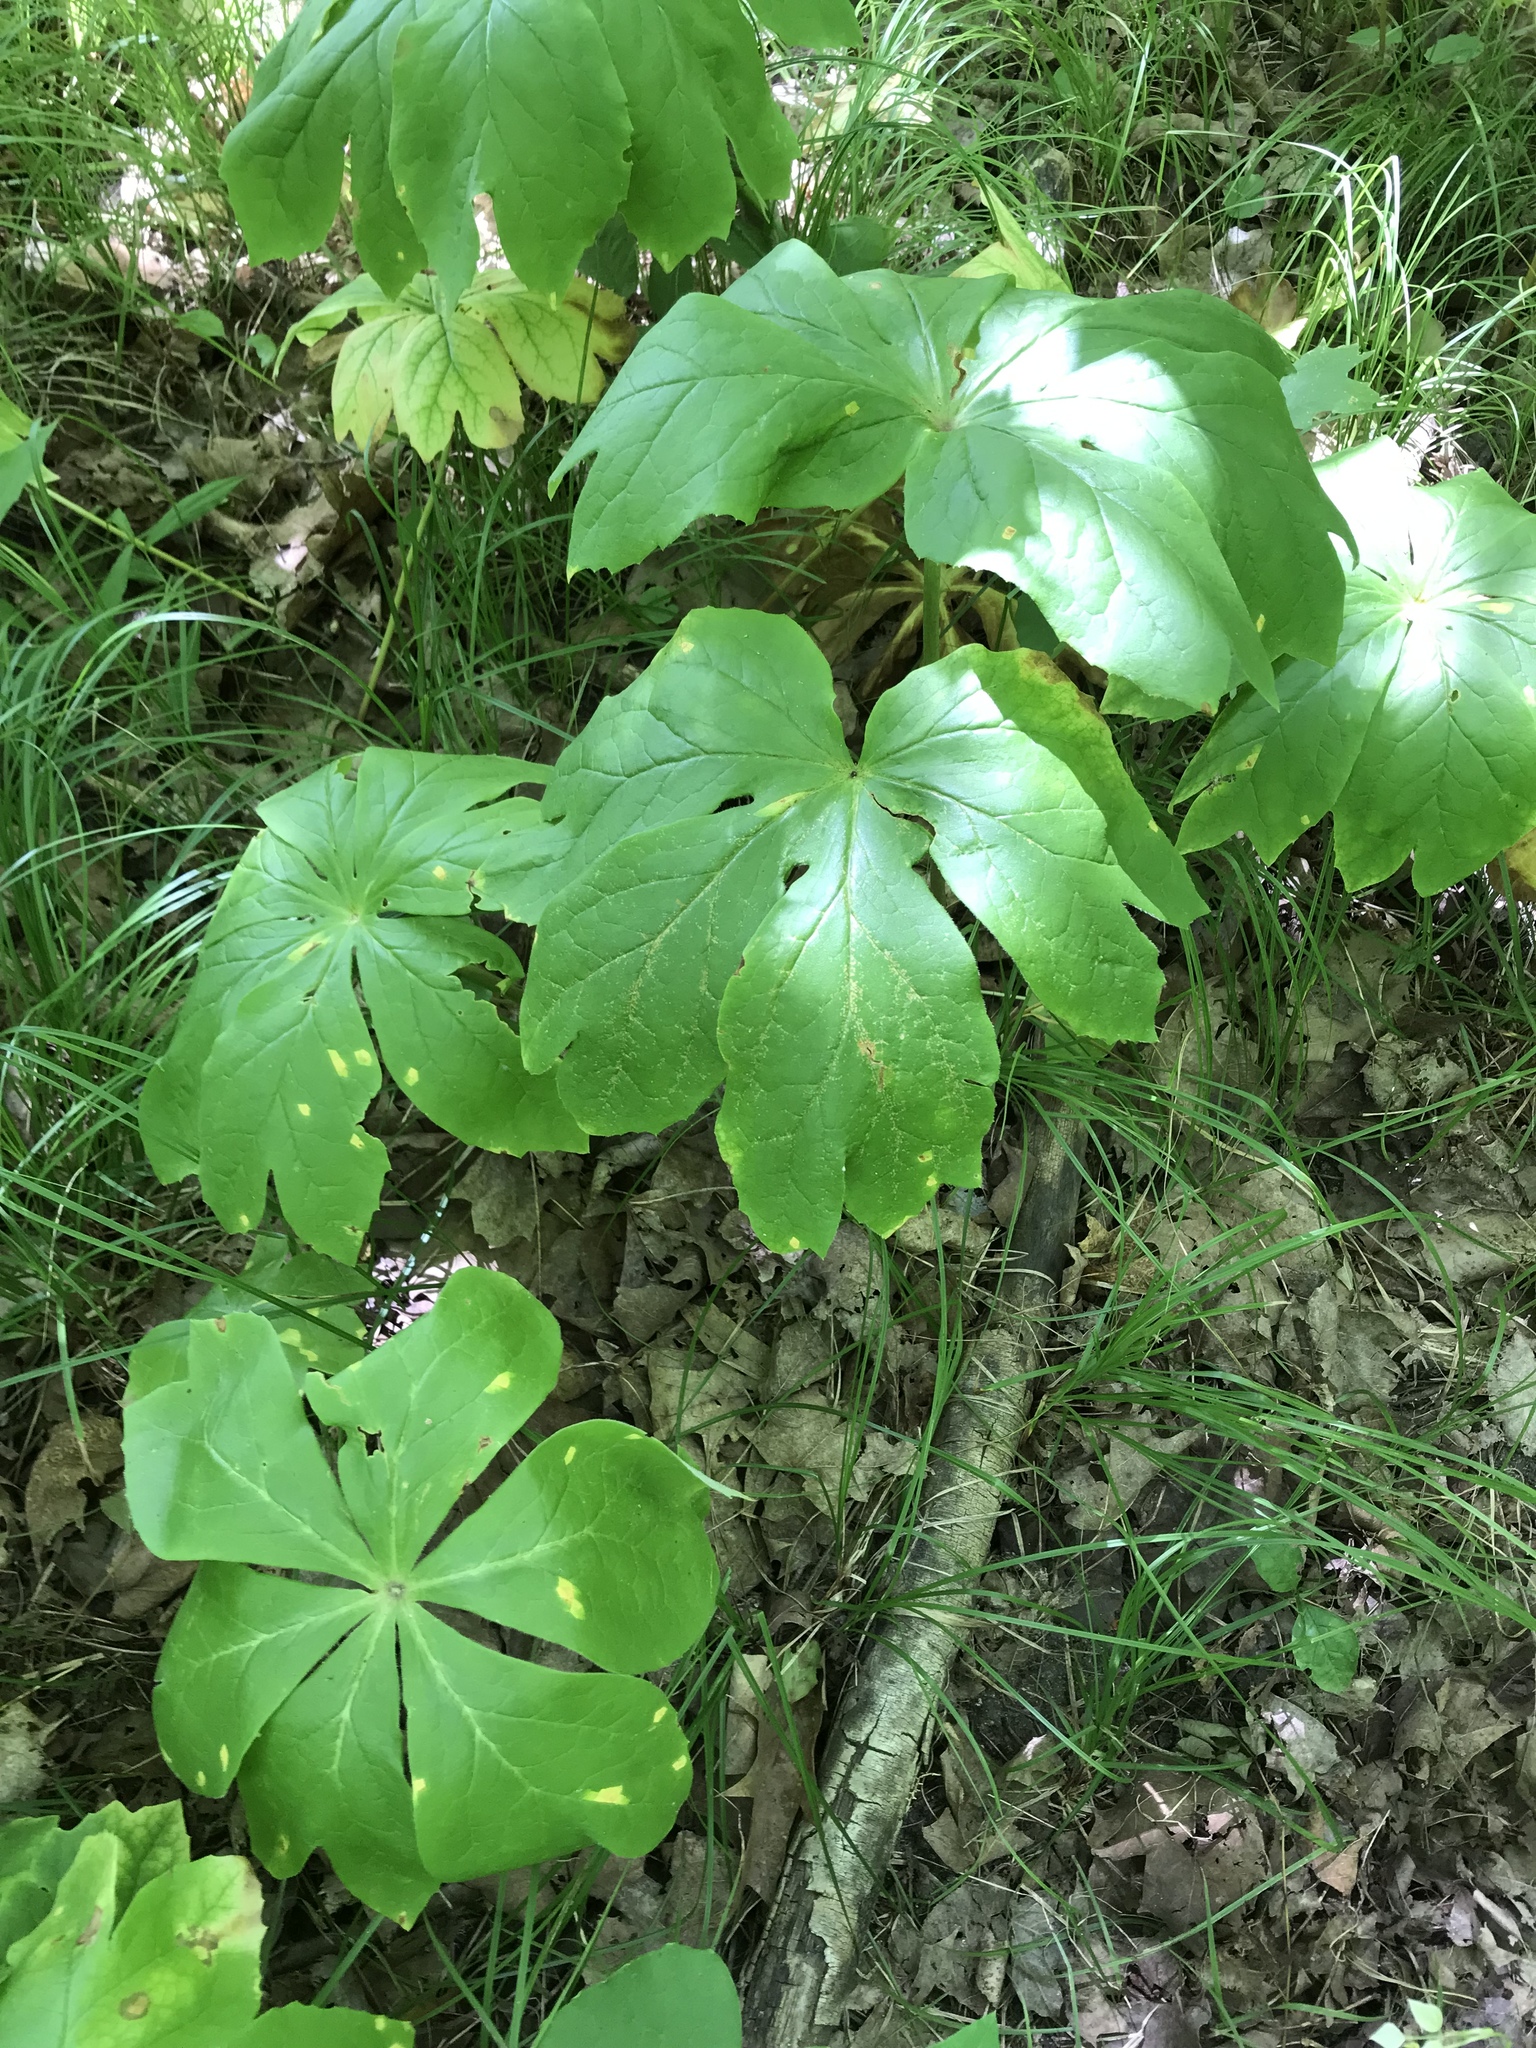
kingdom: Plantae
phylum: Tracheophyta
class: Magnoliopsida
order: Ranunculales
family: Berberidaceae
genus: Podophyllum
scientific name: Podophyllum peltatum
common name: Wild mandrake
